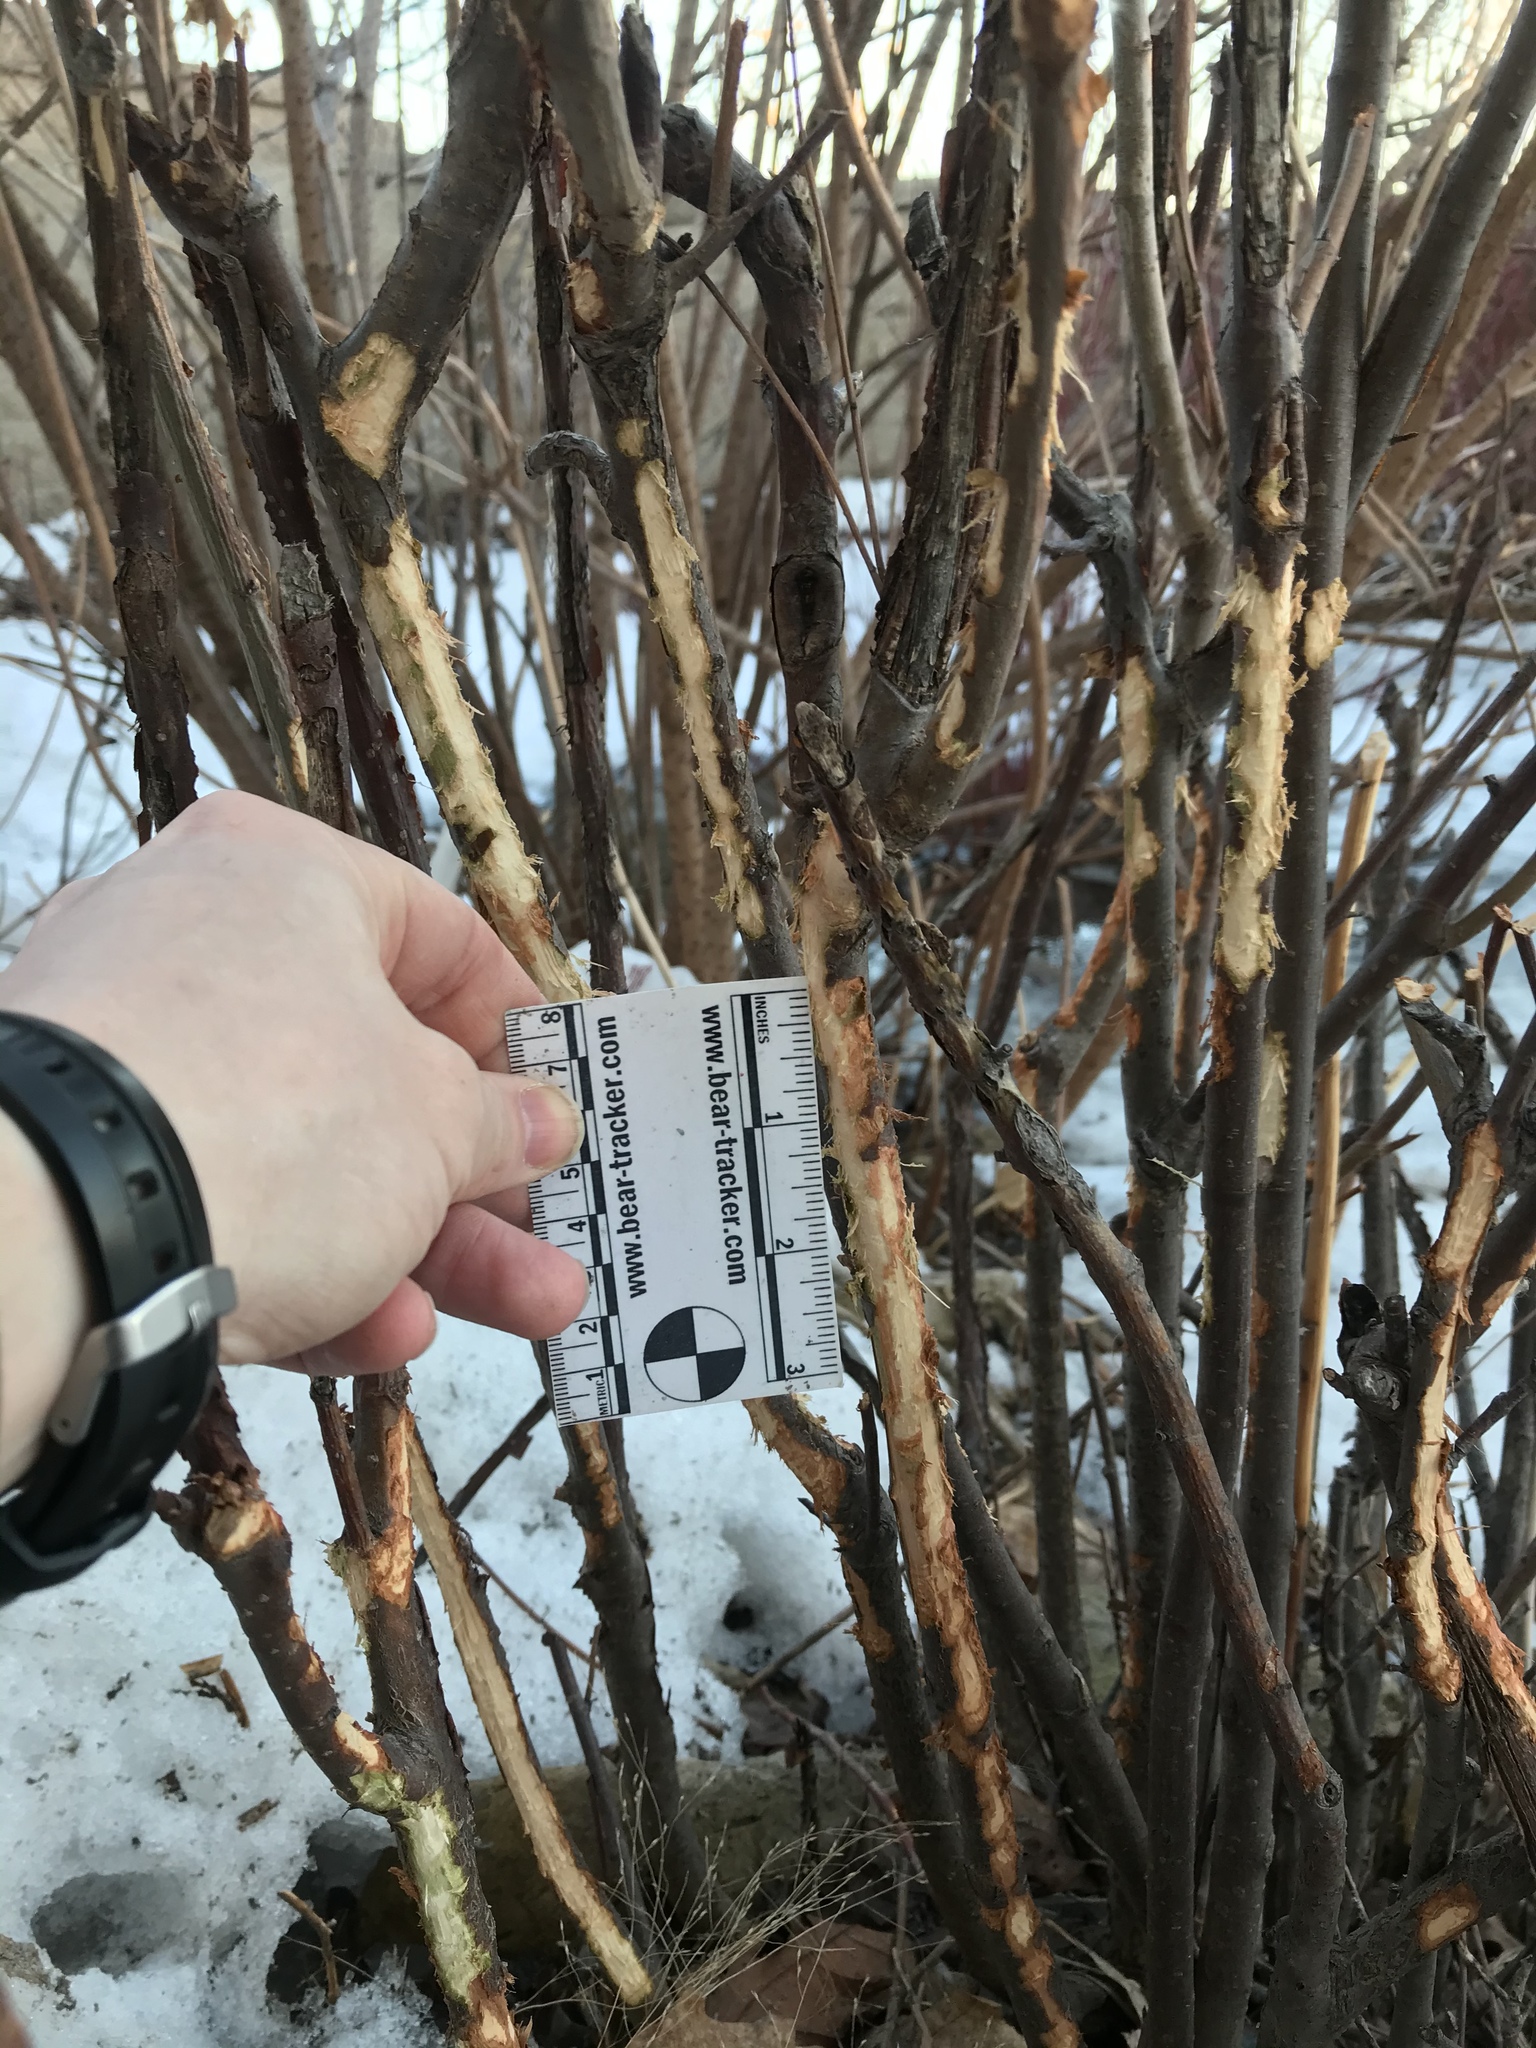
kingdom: Animalia
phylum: Chordata
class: Mammalia
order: Lagomorpha
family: Leporidae
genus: Sylvilagus
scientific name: Sylvilagus floridanus
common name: Eastern cottontail
